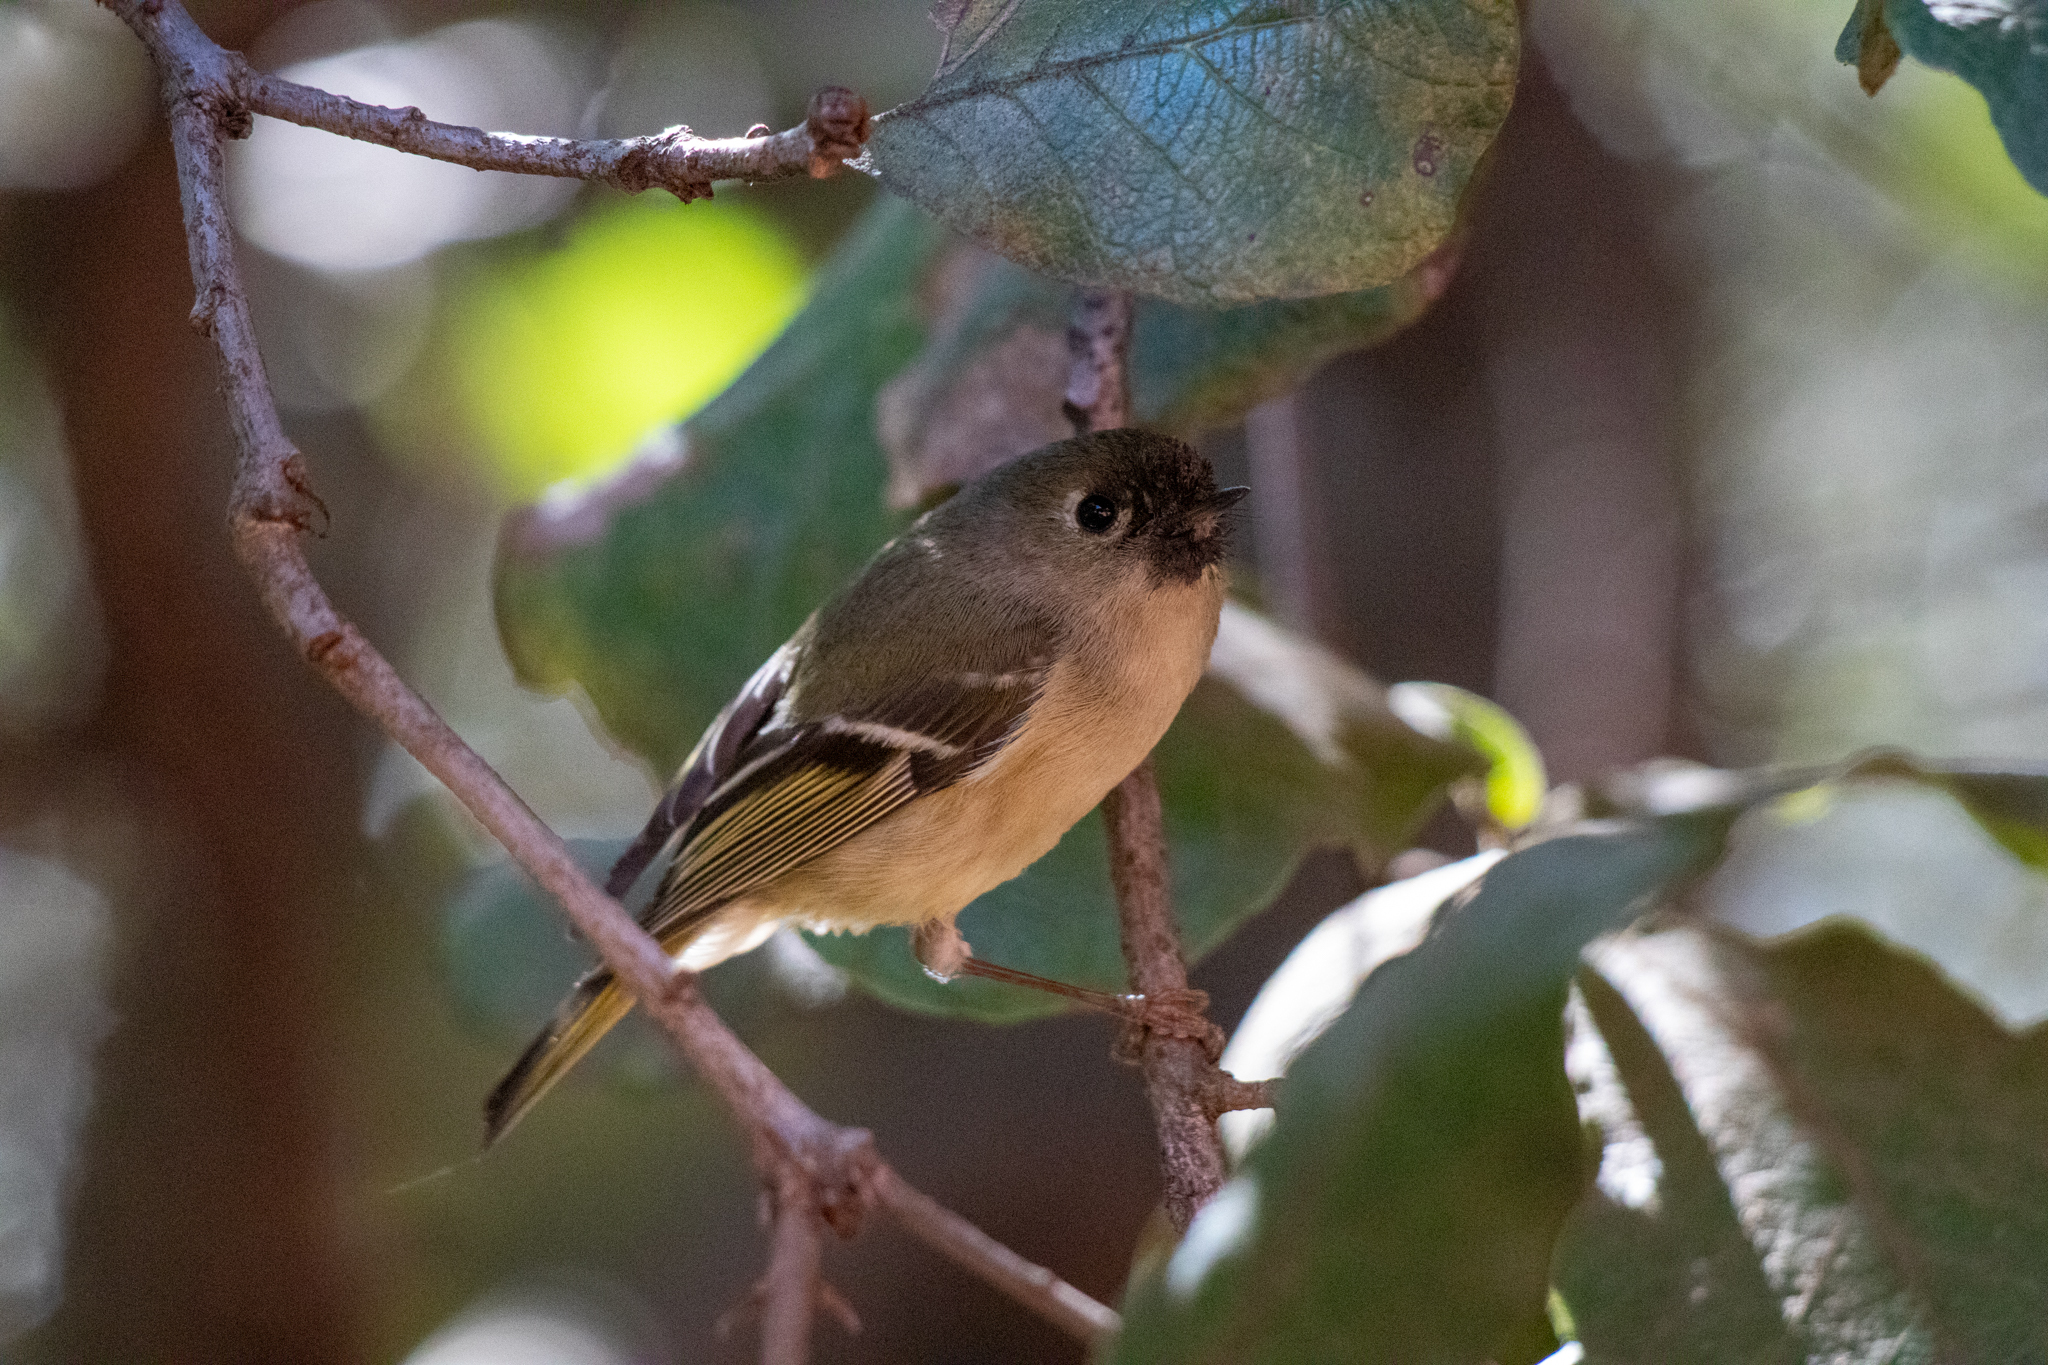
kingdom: Animalia
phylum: Chordata
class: Aves
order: Passeriformes
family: Regulidae
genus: Regulus
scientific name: Regulus calendula
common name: Ruby-crowned kinglet
